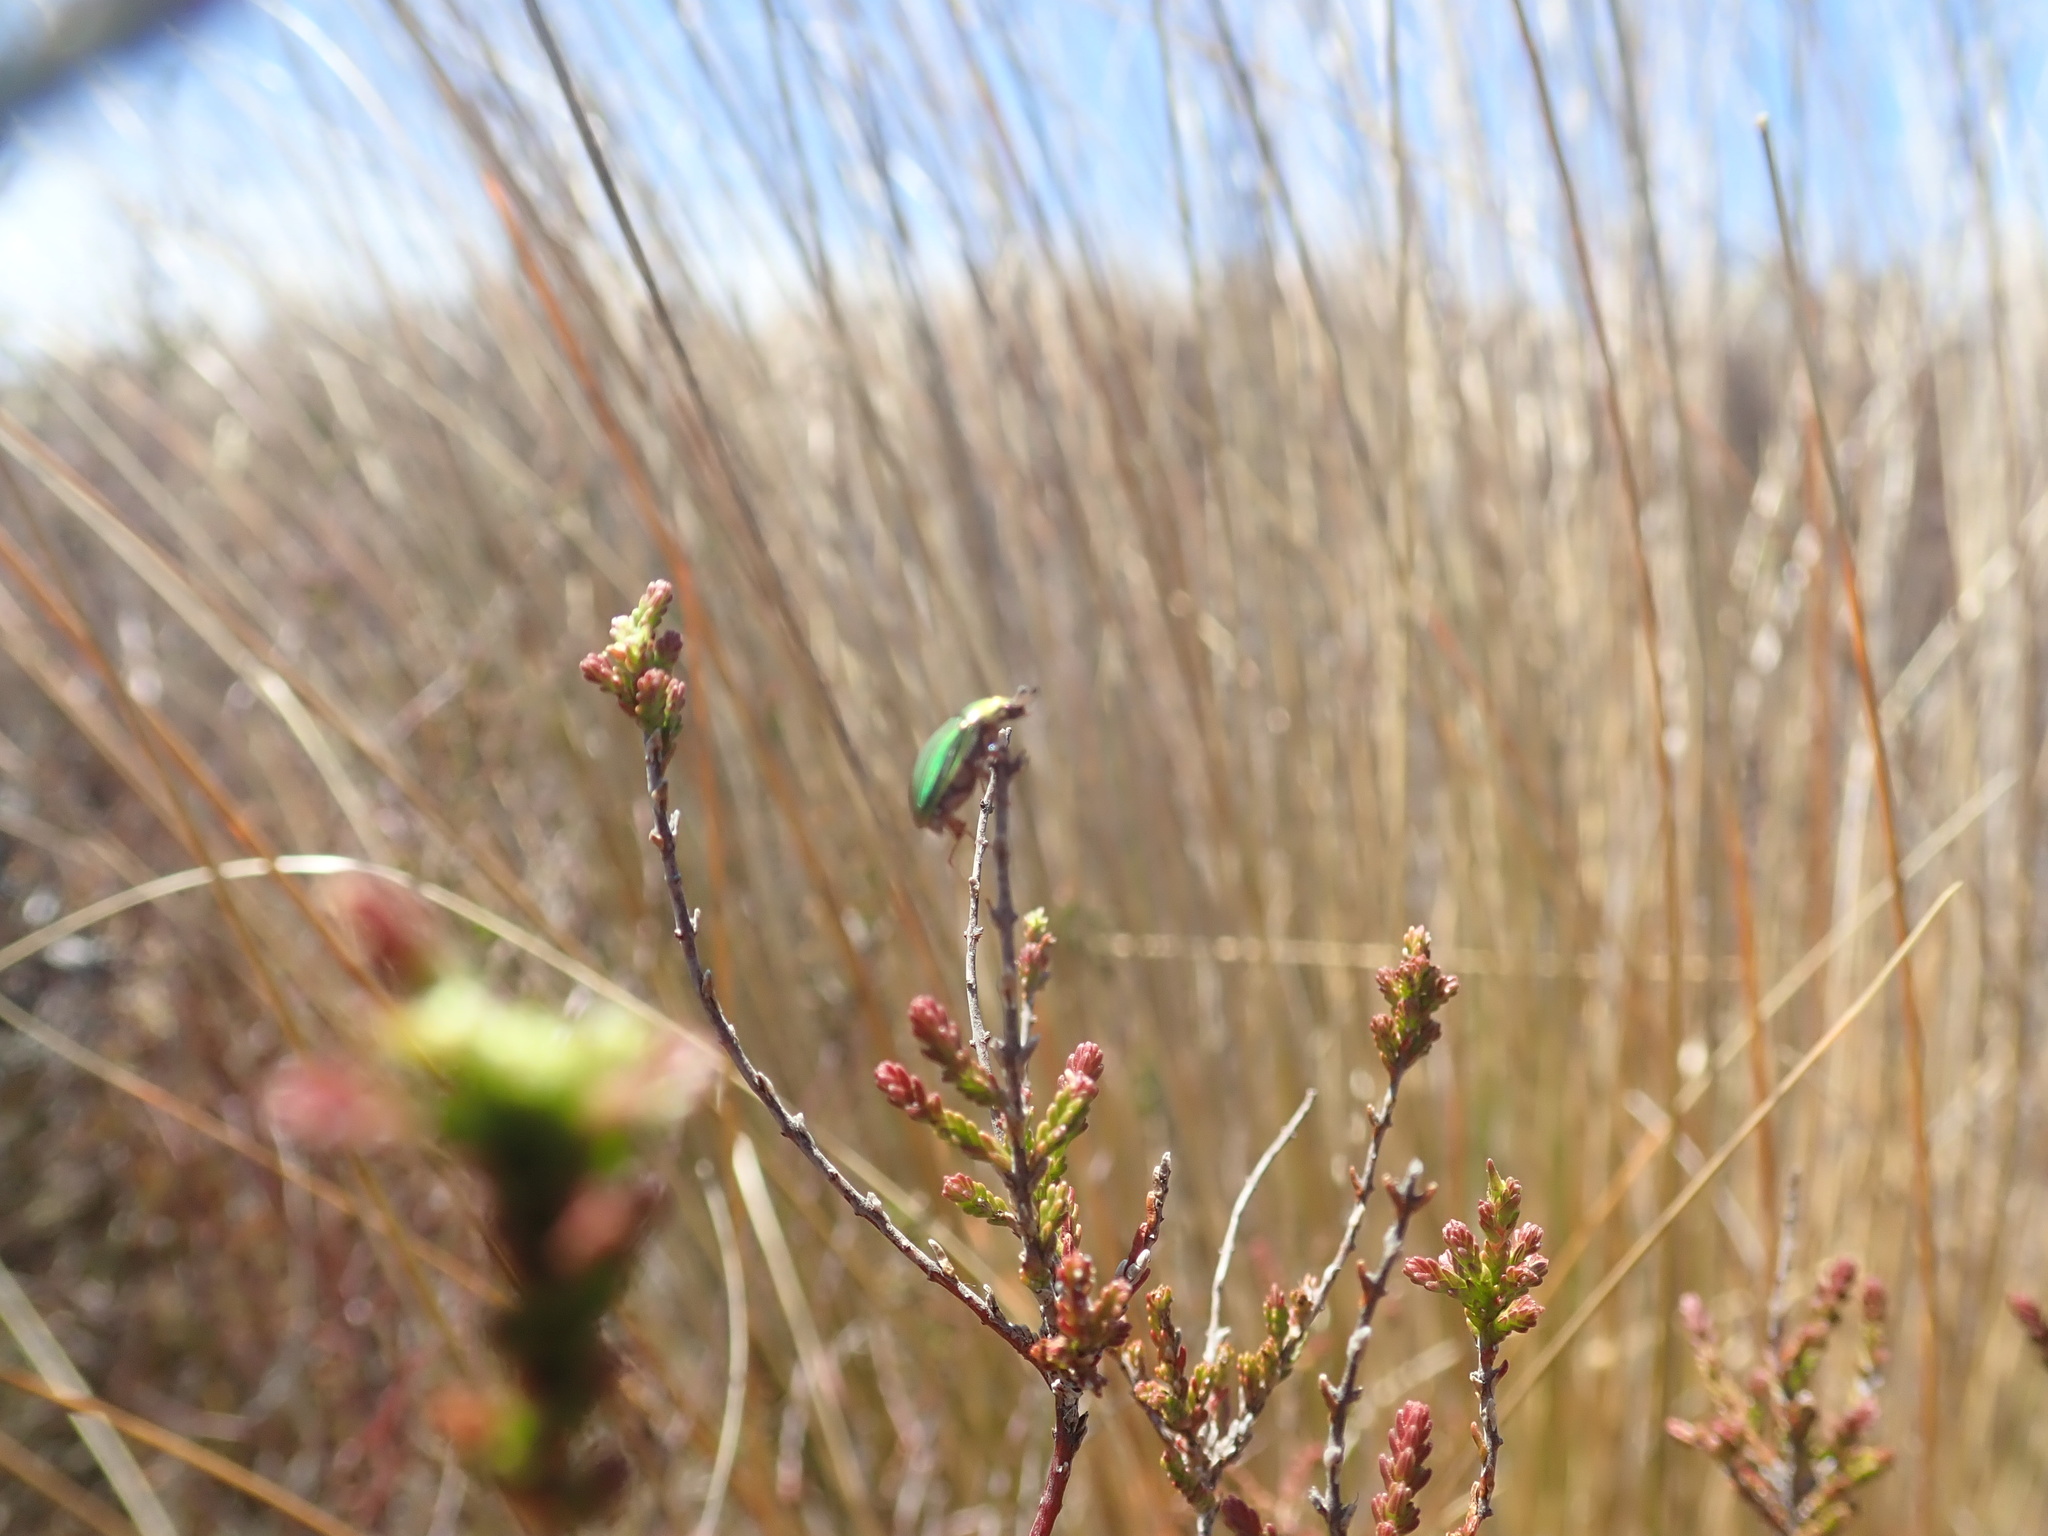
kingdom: Animalia
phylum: Arthropoda
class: Insecta
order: Coleoptera
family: Scarabaeidae
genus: Pyronota
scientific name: Pyronota festiva
